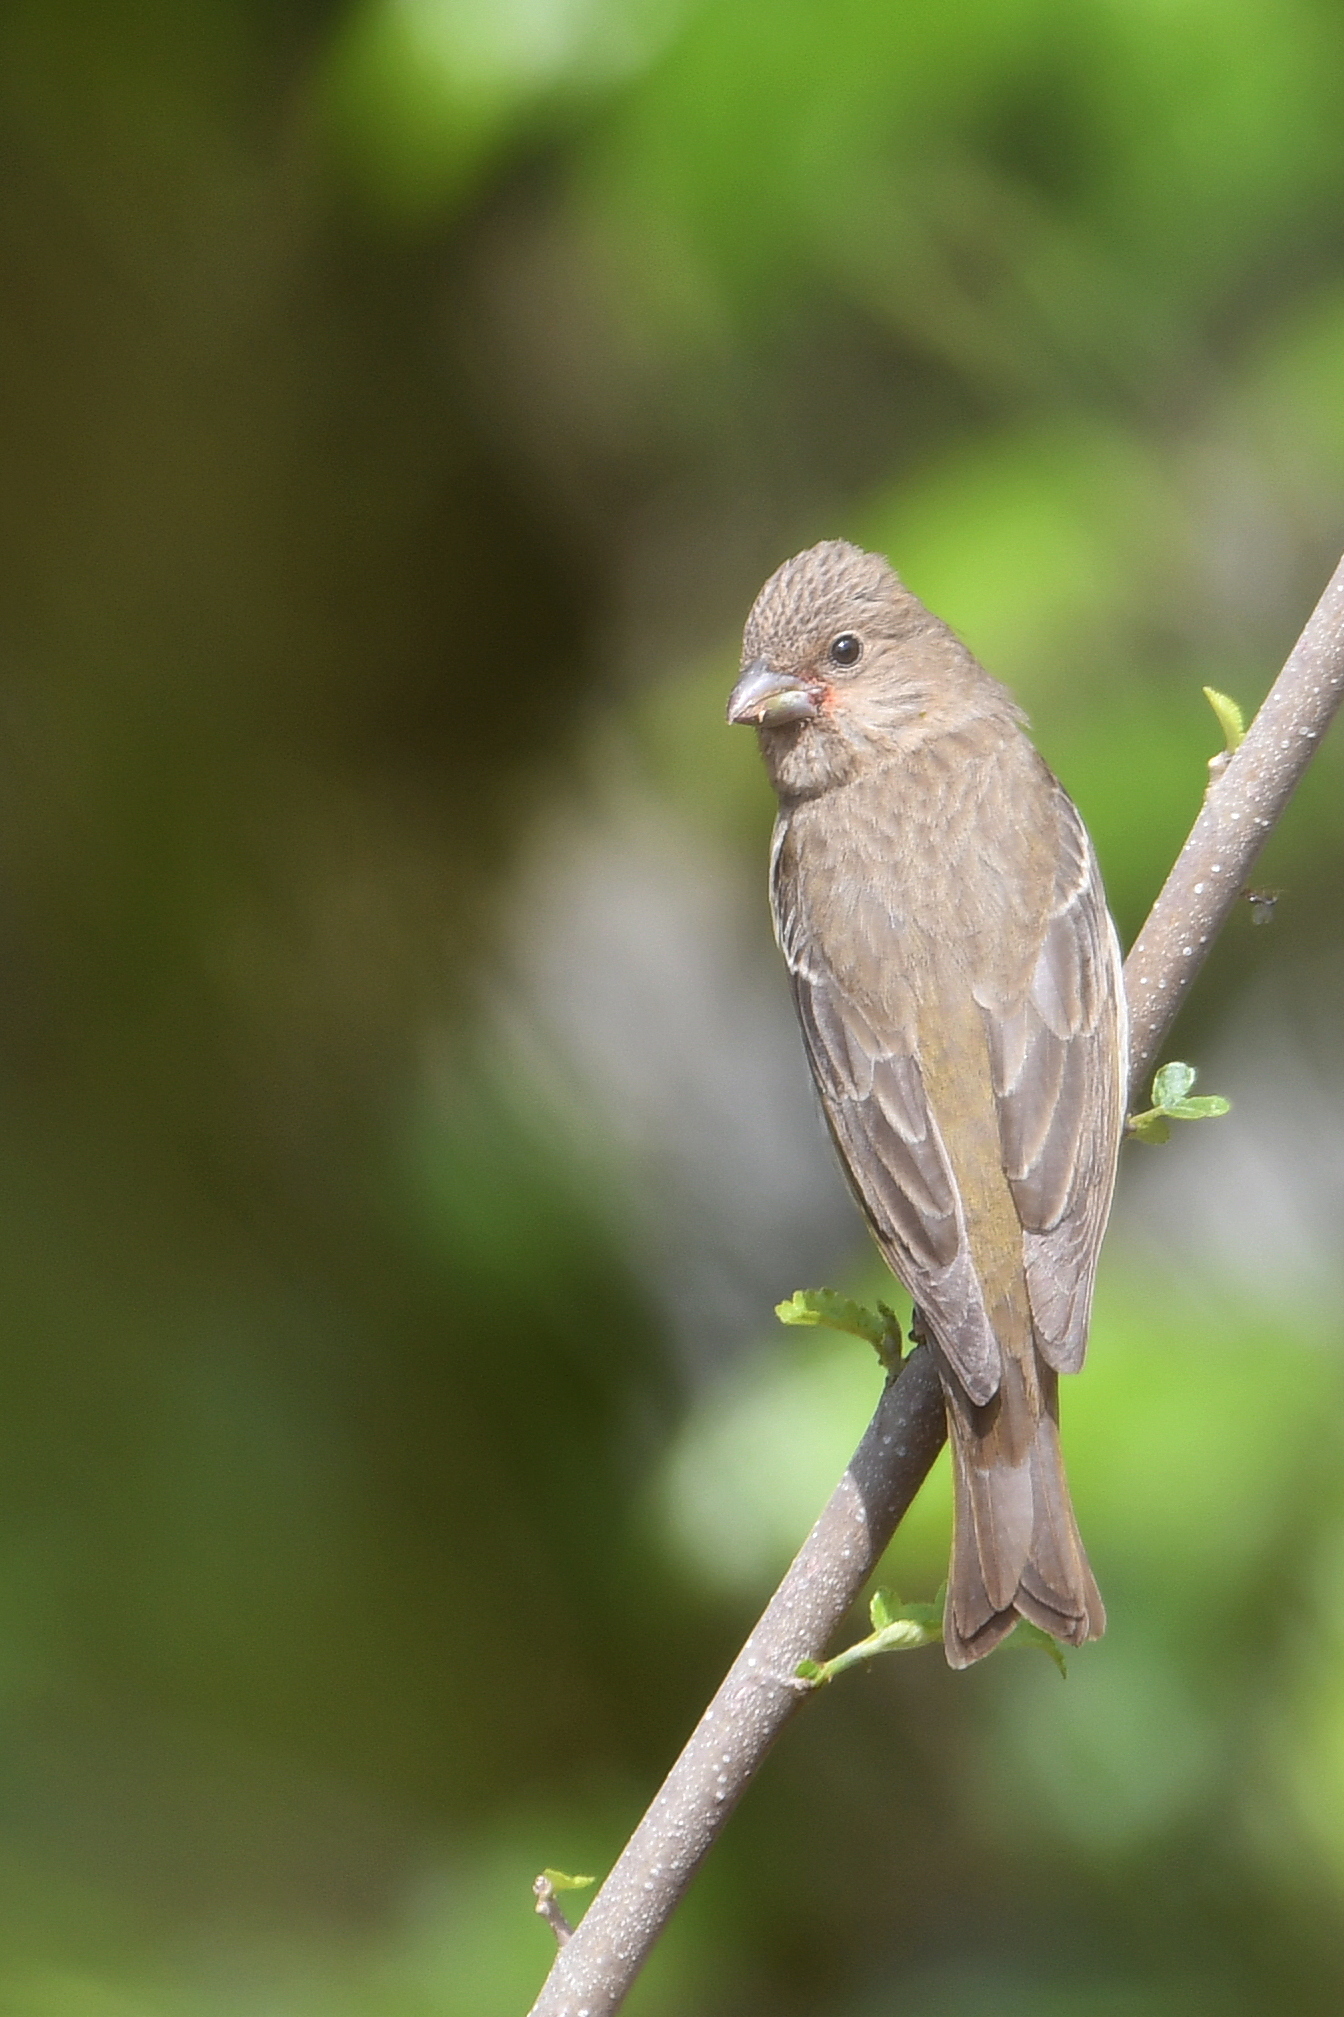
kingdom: Animalia
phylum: Chordata
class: Aves
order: Passeriformes
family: Fringillidae
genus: Carpodacus
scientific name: Carpodacus erythrinus
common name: Common rosefinch
